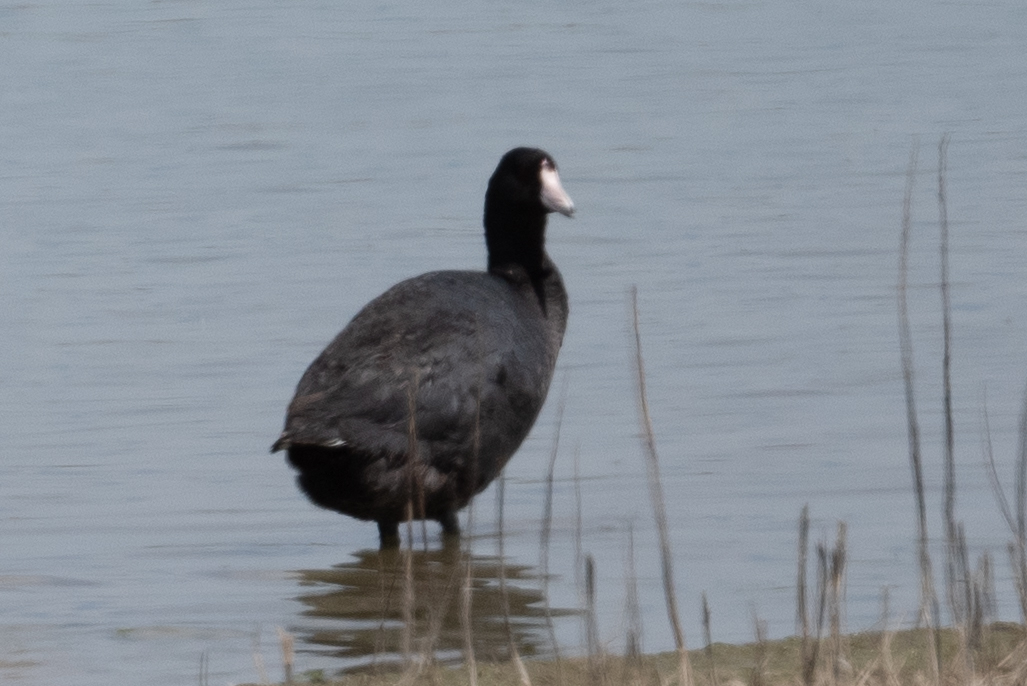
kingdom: Animalia
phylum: Chordata
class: Aves
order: Gruiformes
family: Rallidae
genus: Fulica
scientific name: Fulica americana
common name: American coot
